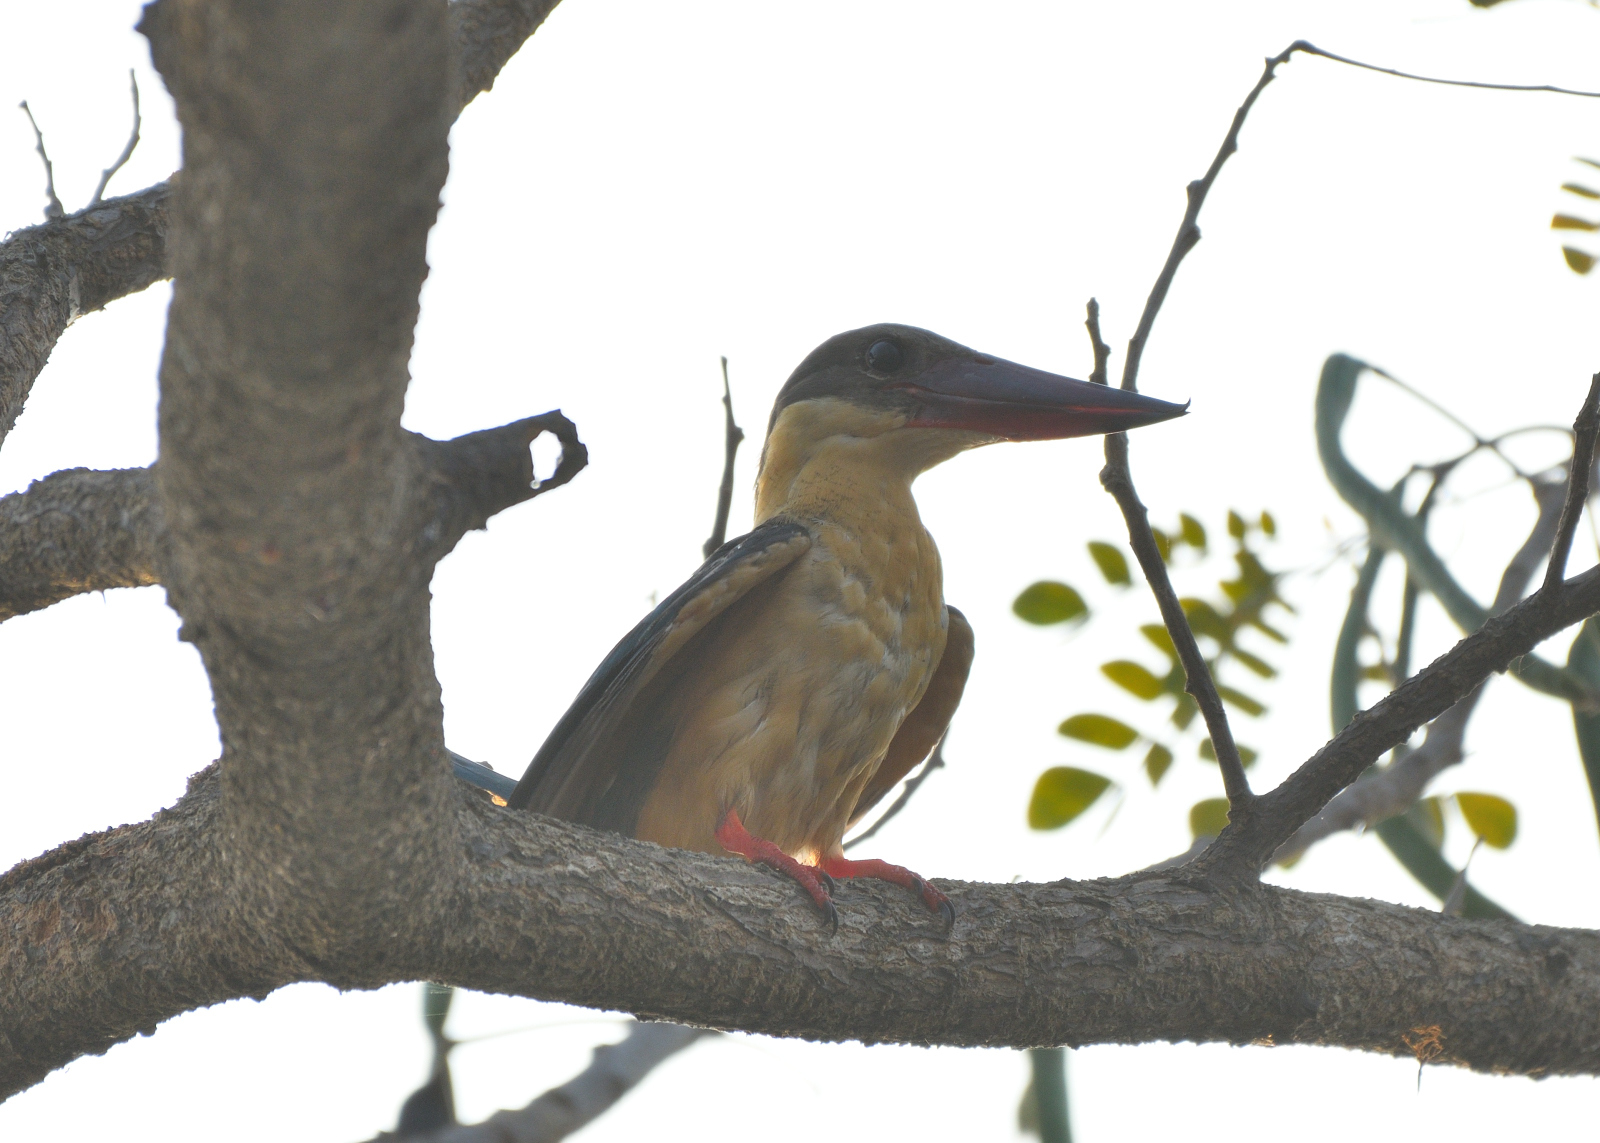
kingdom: Animalia
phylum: Chordata
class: Aves
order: Coraciiformes
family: Alcedinidae
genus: Pelargopsis
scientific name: Pelargopsis capensis
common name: Stork-billed kingfisher
